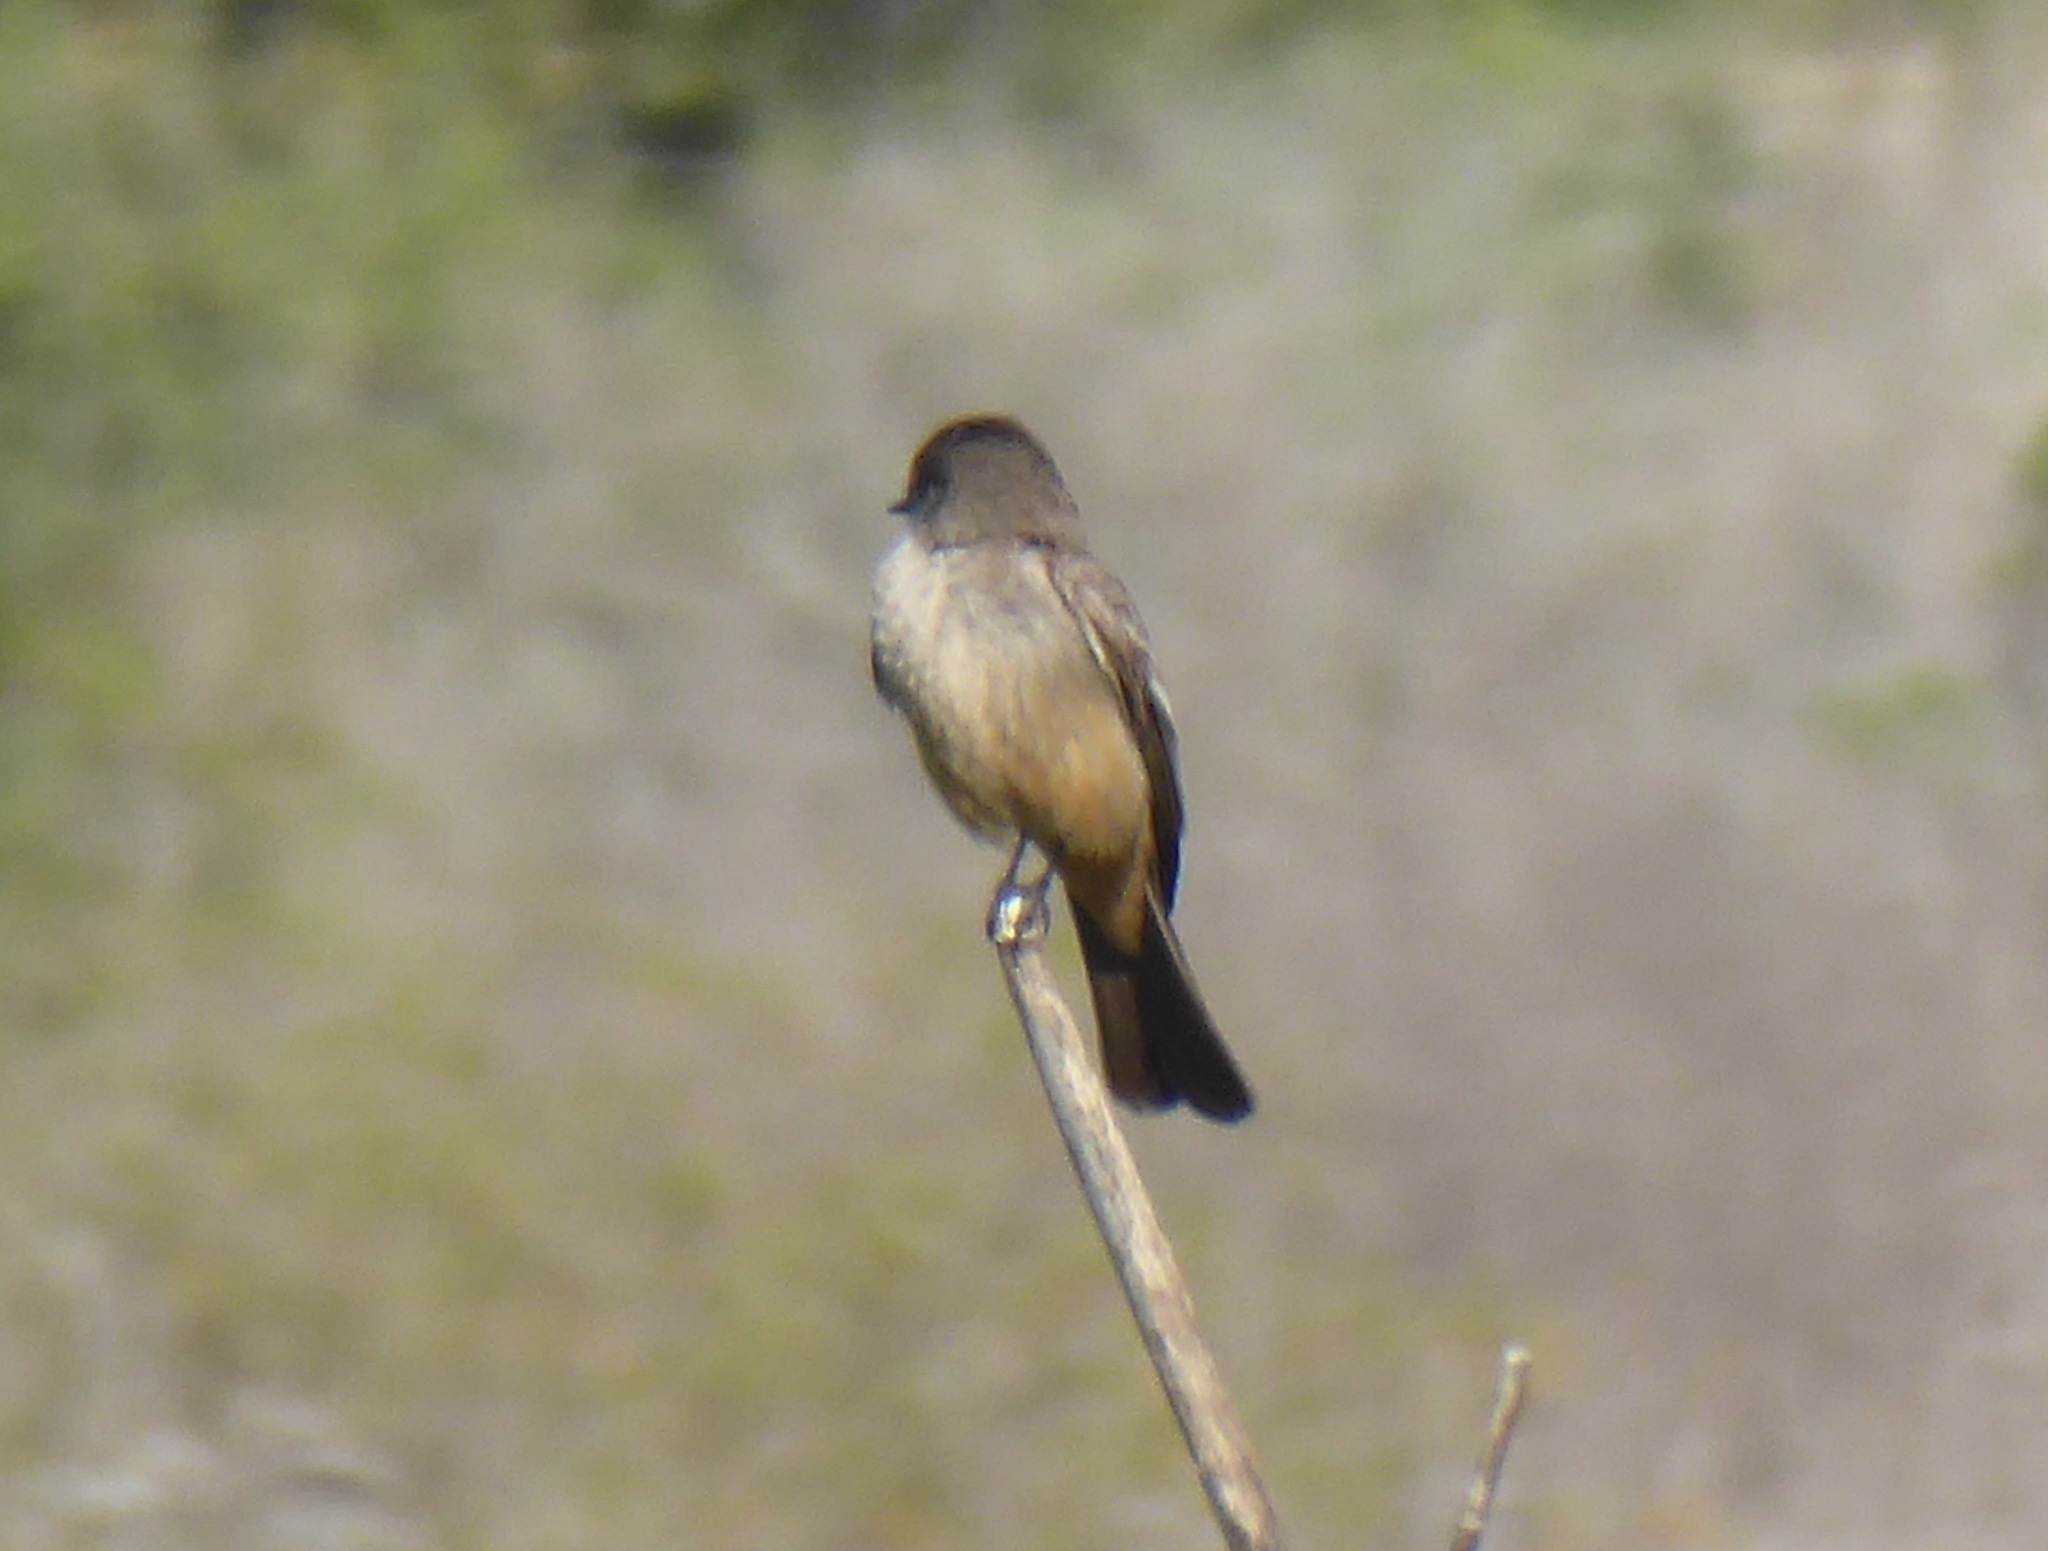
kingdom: Animalia
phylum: Chordata
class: Aves
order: Passeriformes
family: Tyrannidae
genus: Sayornis
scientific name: Sayornis saya
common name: Say's phoebe
